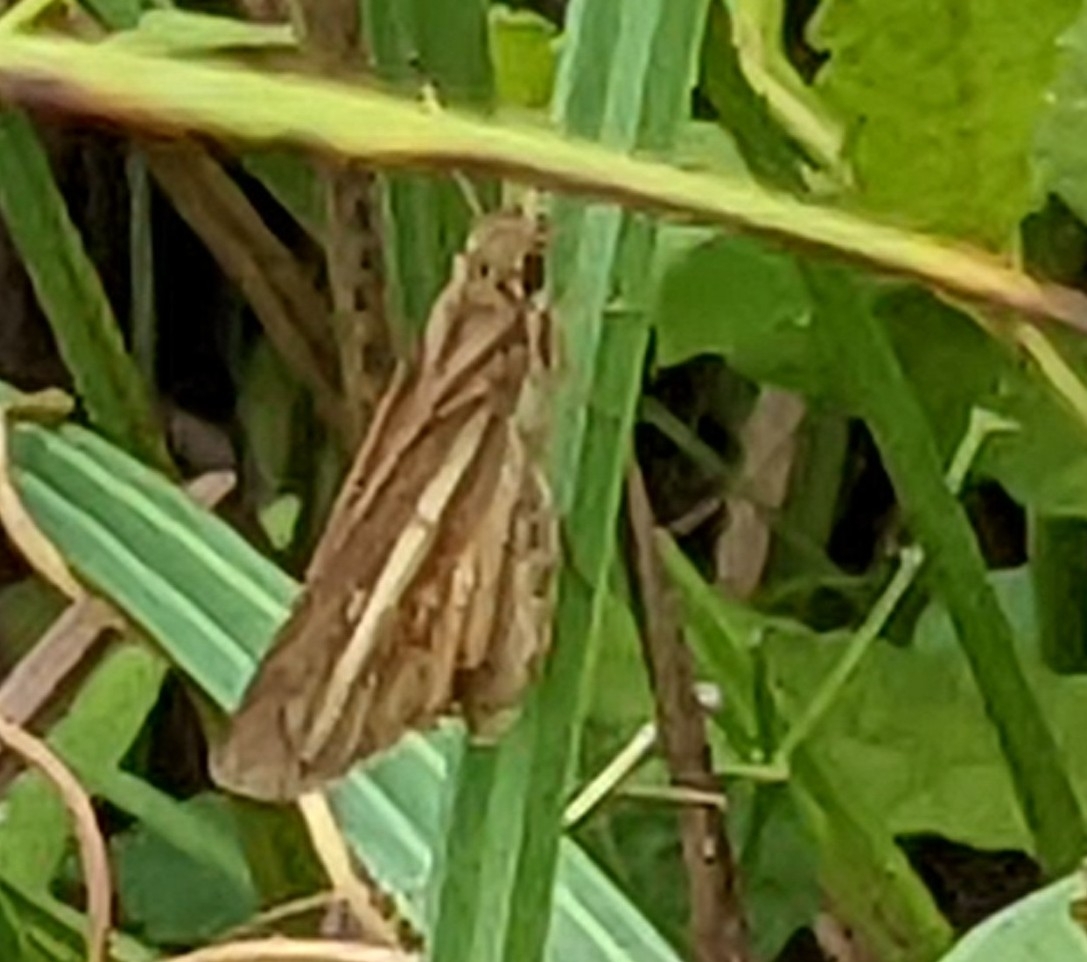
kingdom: Animalia
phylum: Arthropoda
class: Insecta
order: Lepidoptera
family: Hesperiidae
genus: Poanes
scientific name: Poanes viator
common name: Broad-winged skipper
